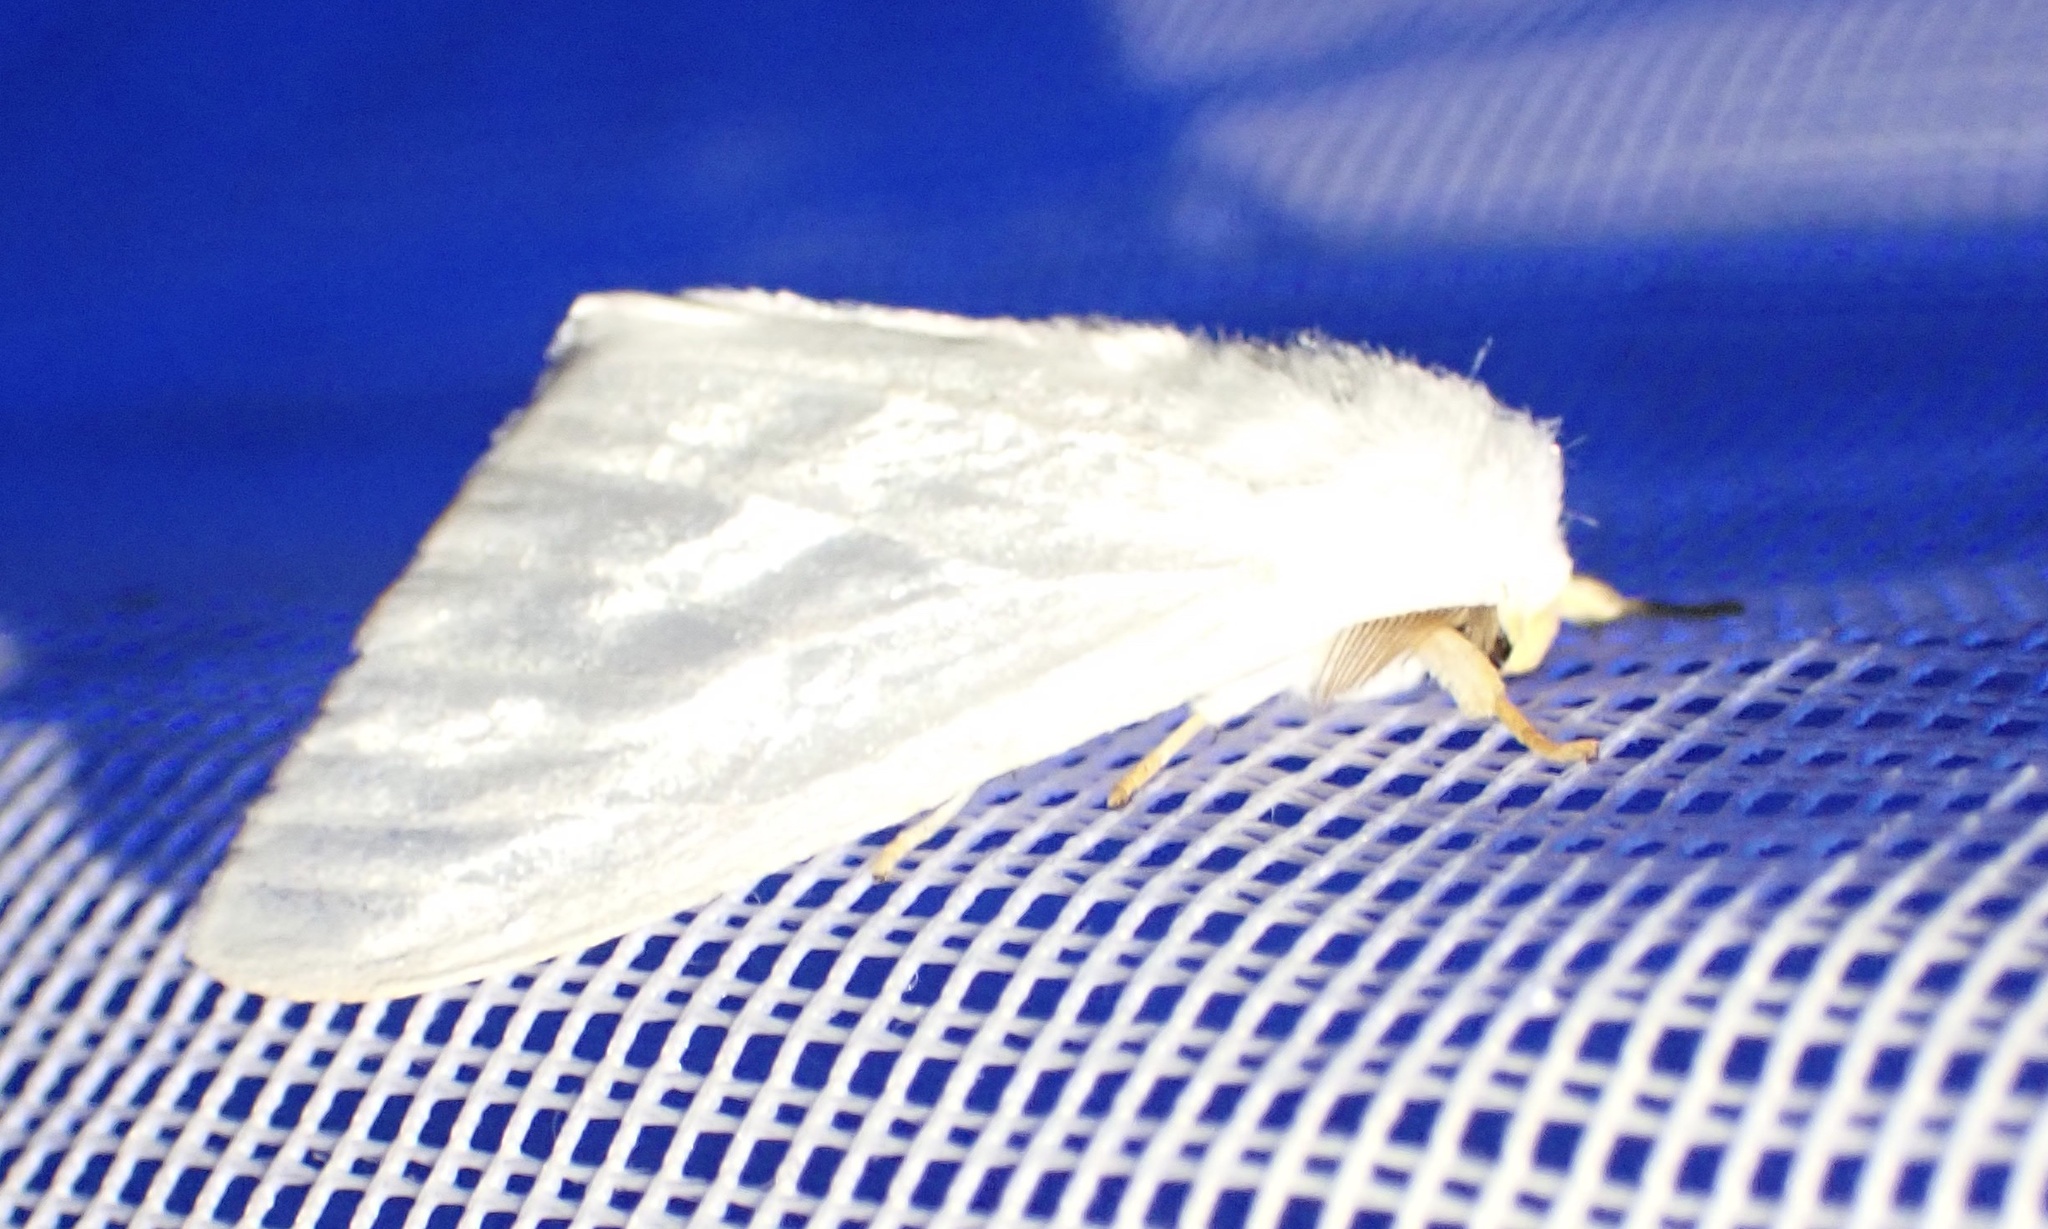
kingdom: Animalia
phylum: Arthropoda
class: Insecta
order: Lepidoptera
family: Erebidae
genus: Leucoma
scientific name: Leucoma luteipes
